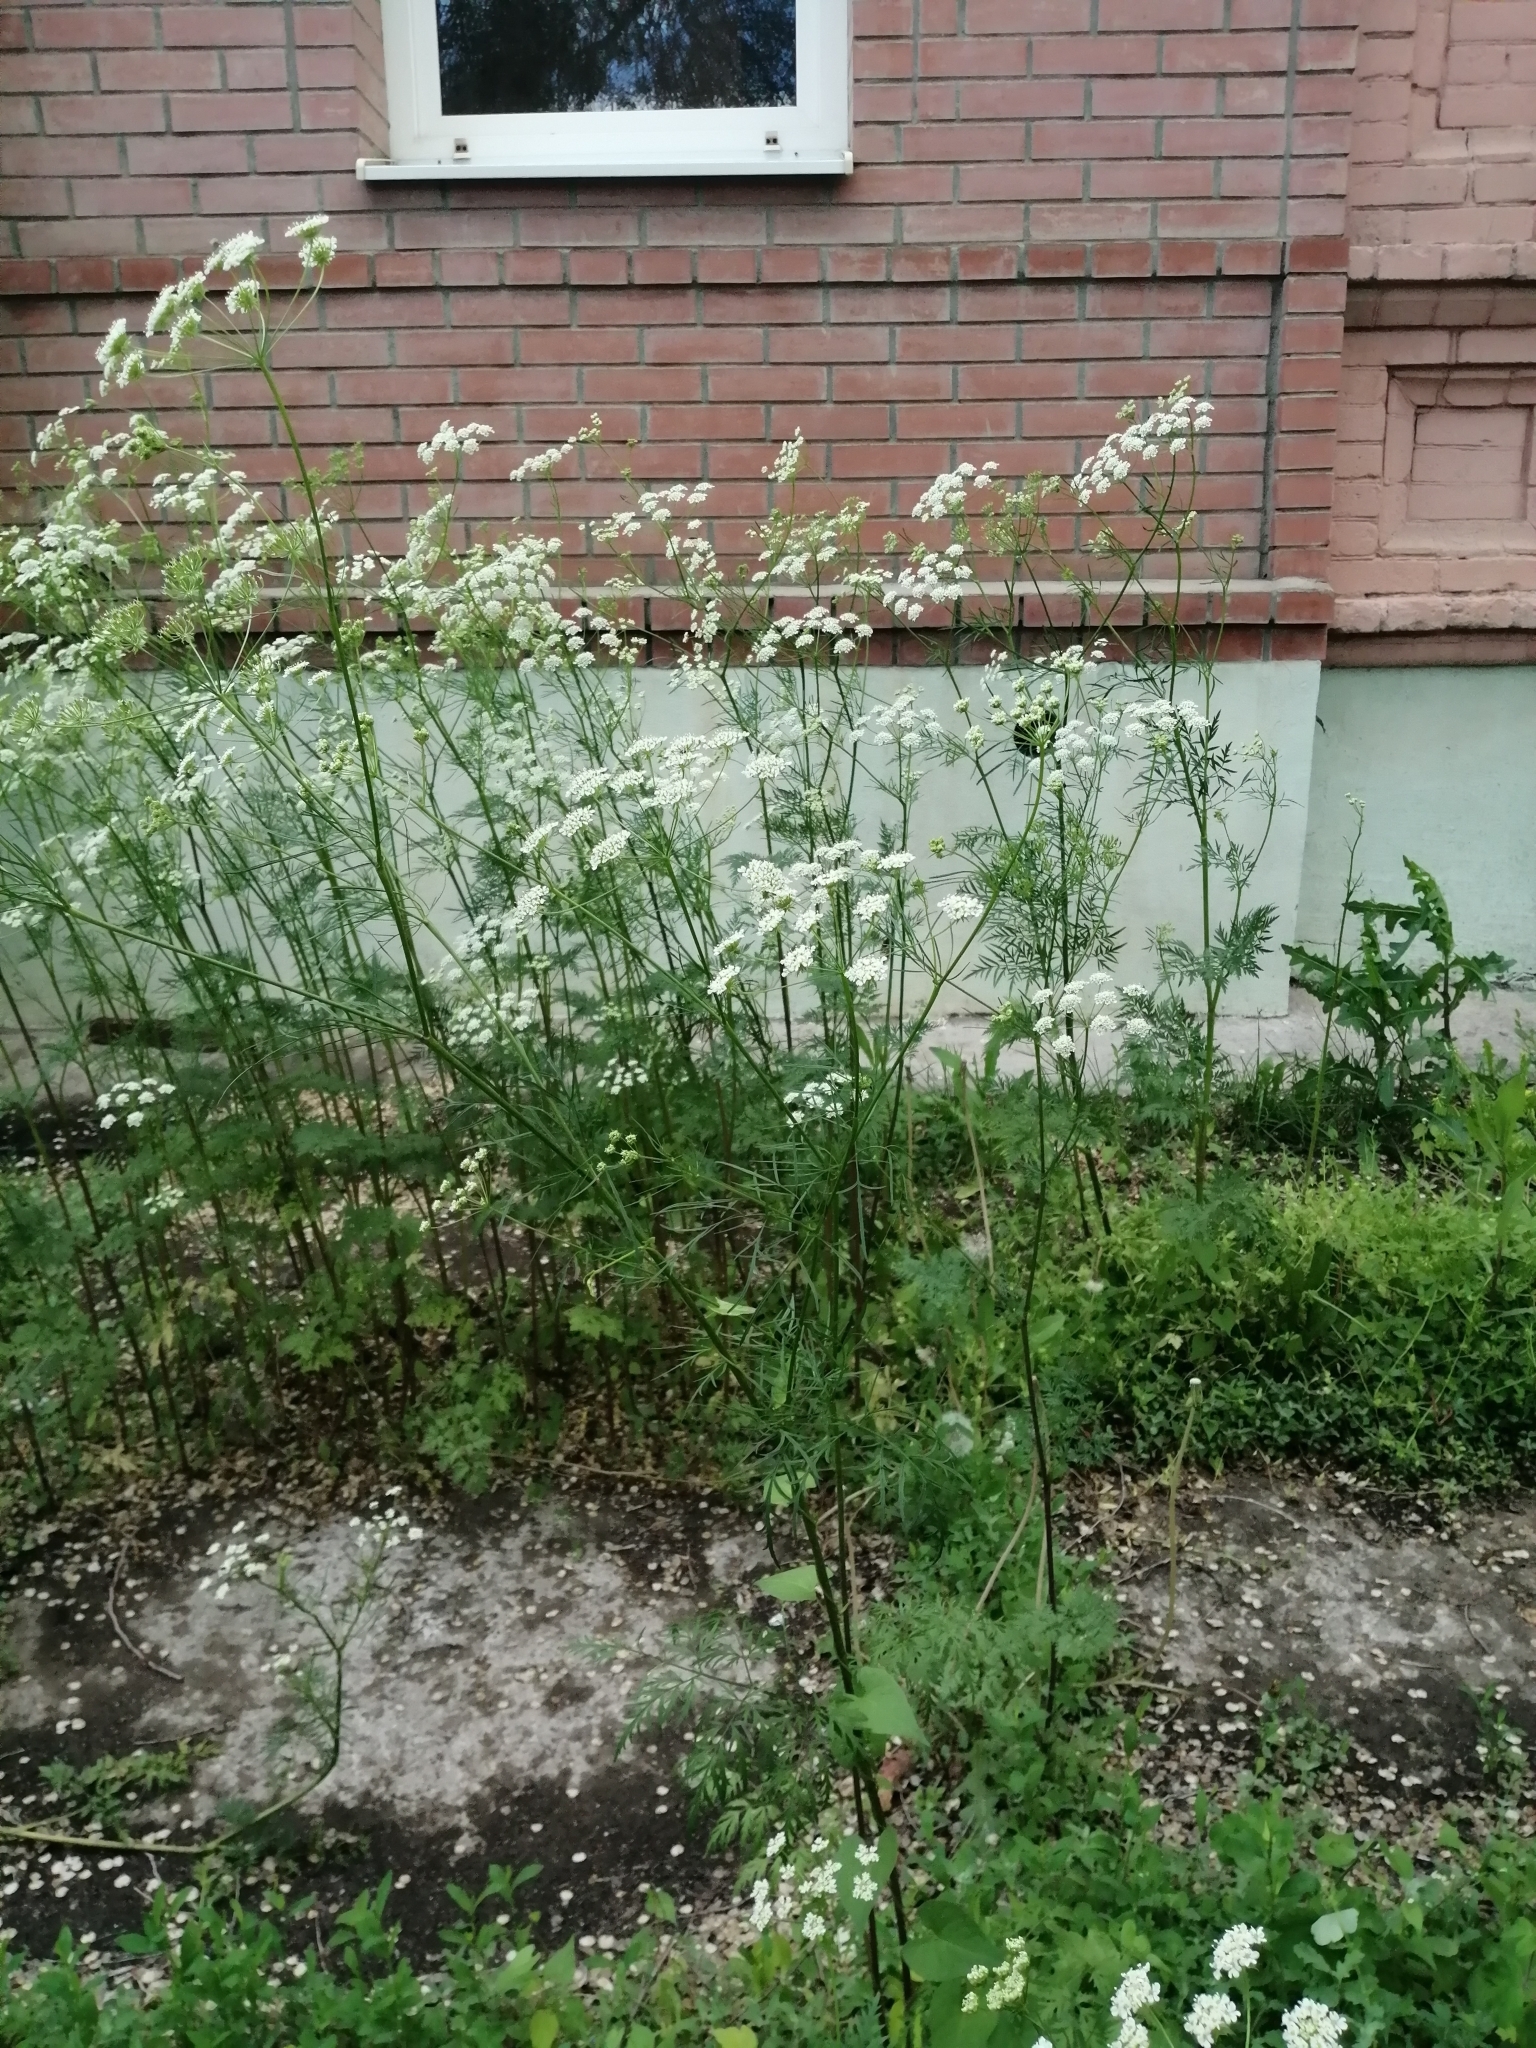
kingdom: Plantae
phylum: Tracheophyta
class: Magnoliopsida
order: Apiales
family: Apiaceae
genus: Chaerophyllum
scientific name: Chaerophyllum prescottii
